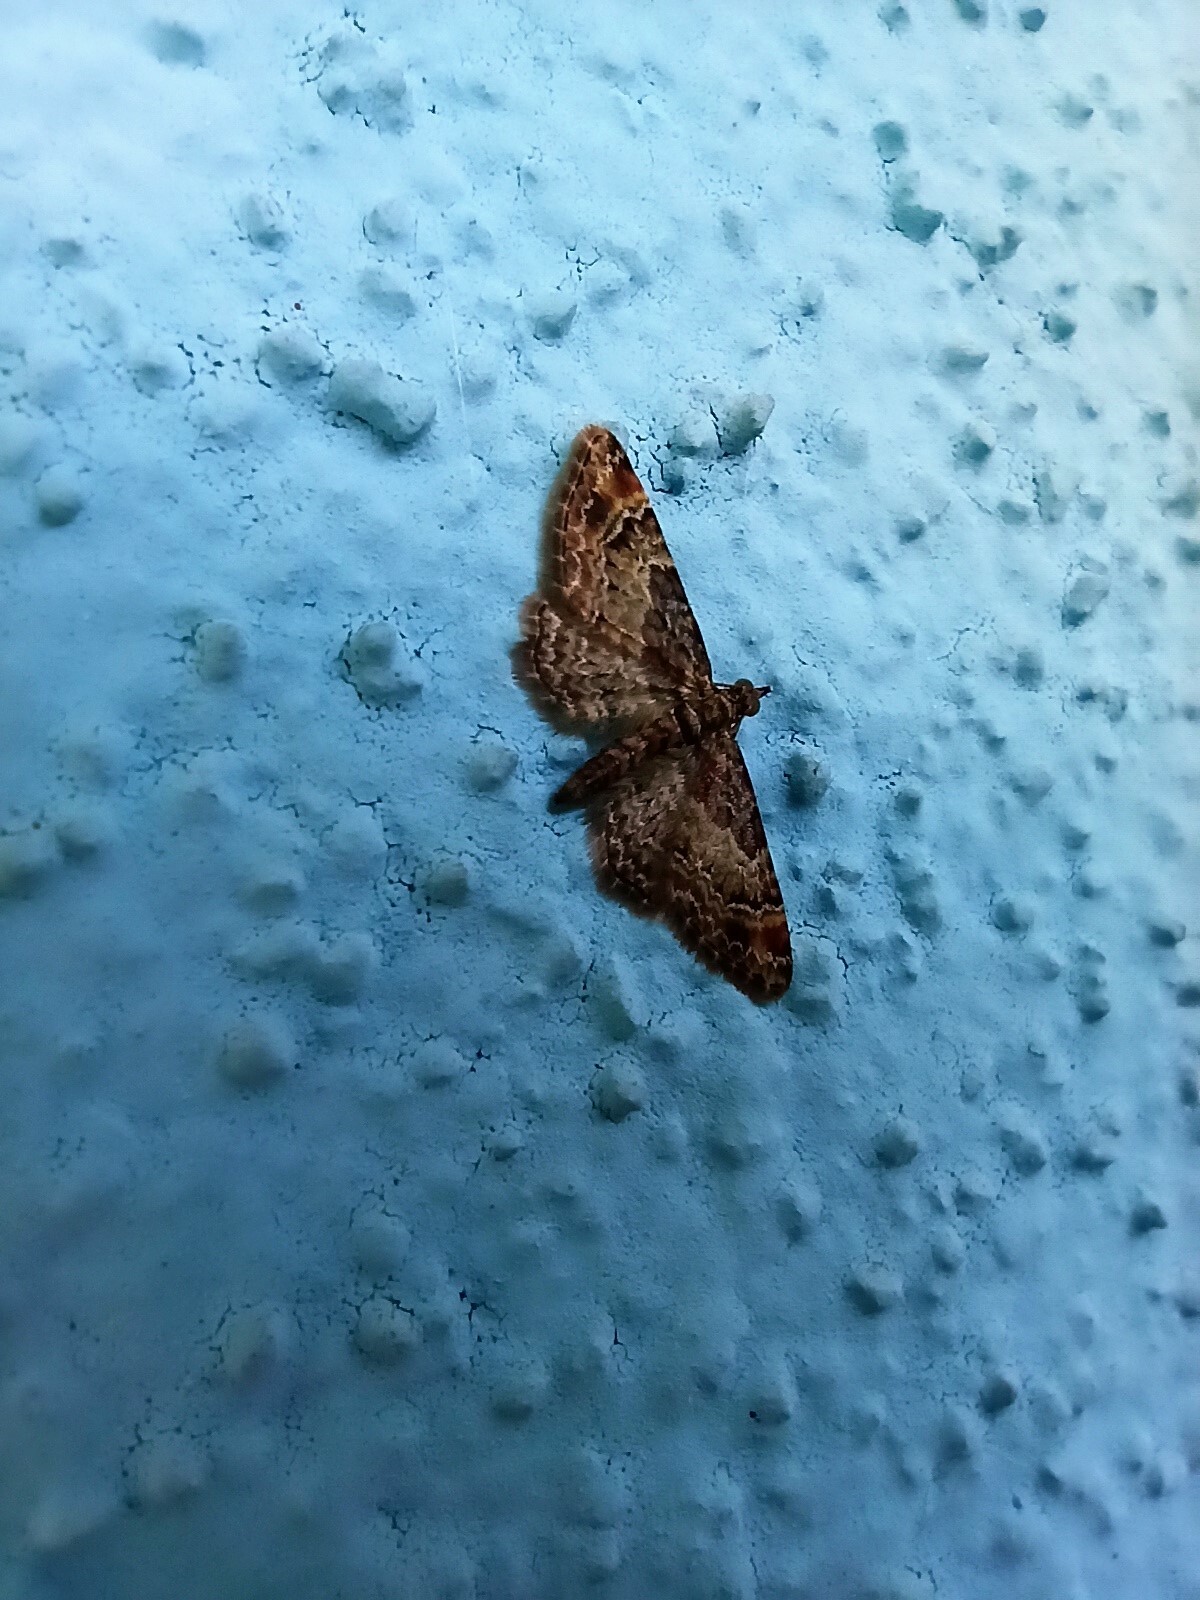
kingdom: Animalia
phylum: Arthropoda
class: Insecta
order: Lepidoptera
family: Geometridae
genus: Gymnoscelis
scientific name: Gymnoscelis rufifasciata
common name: Double-striped pug
